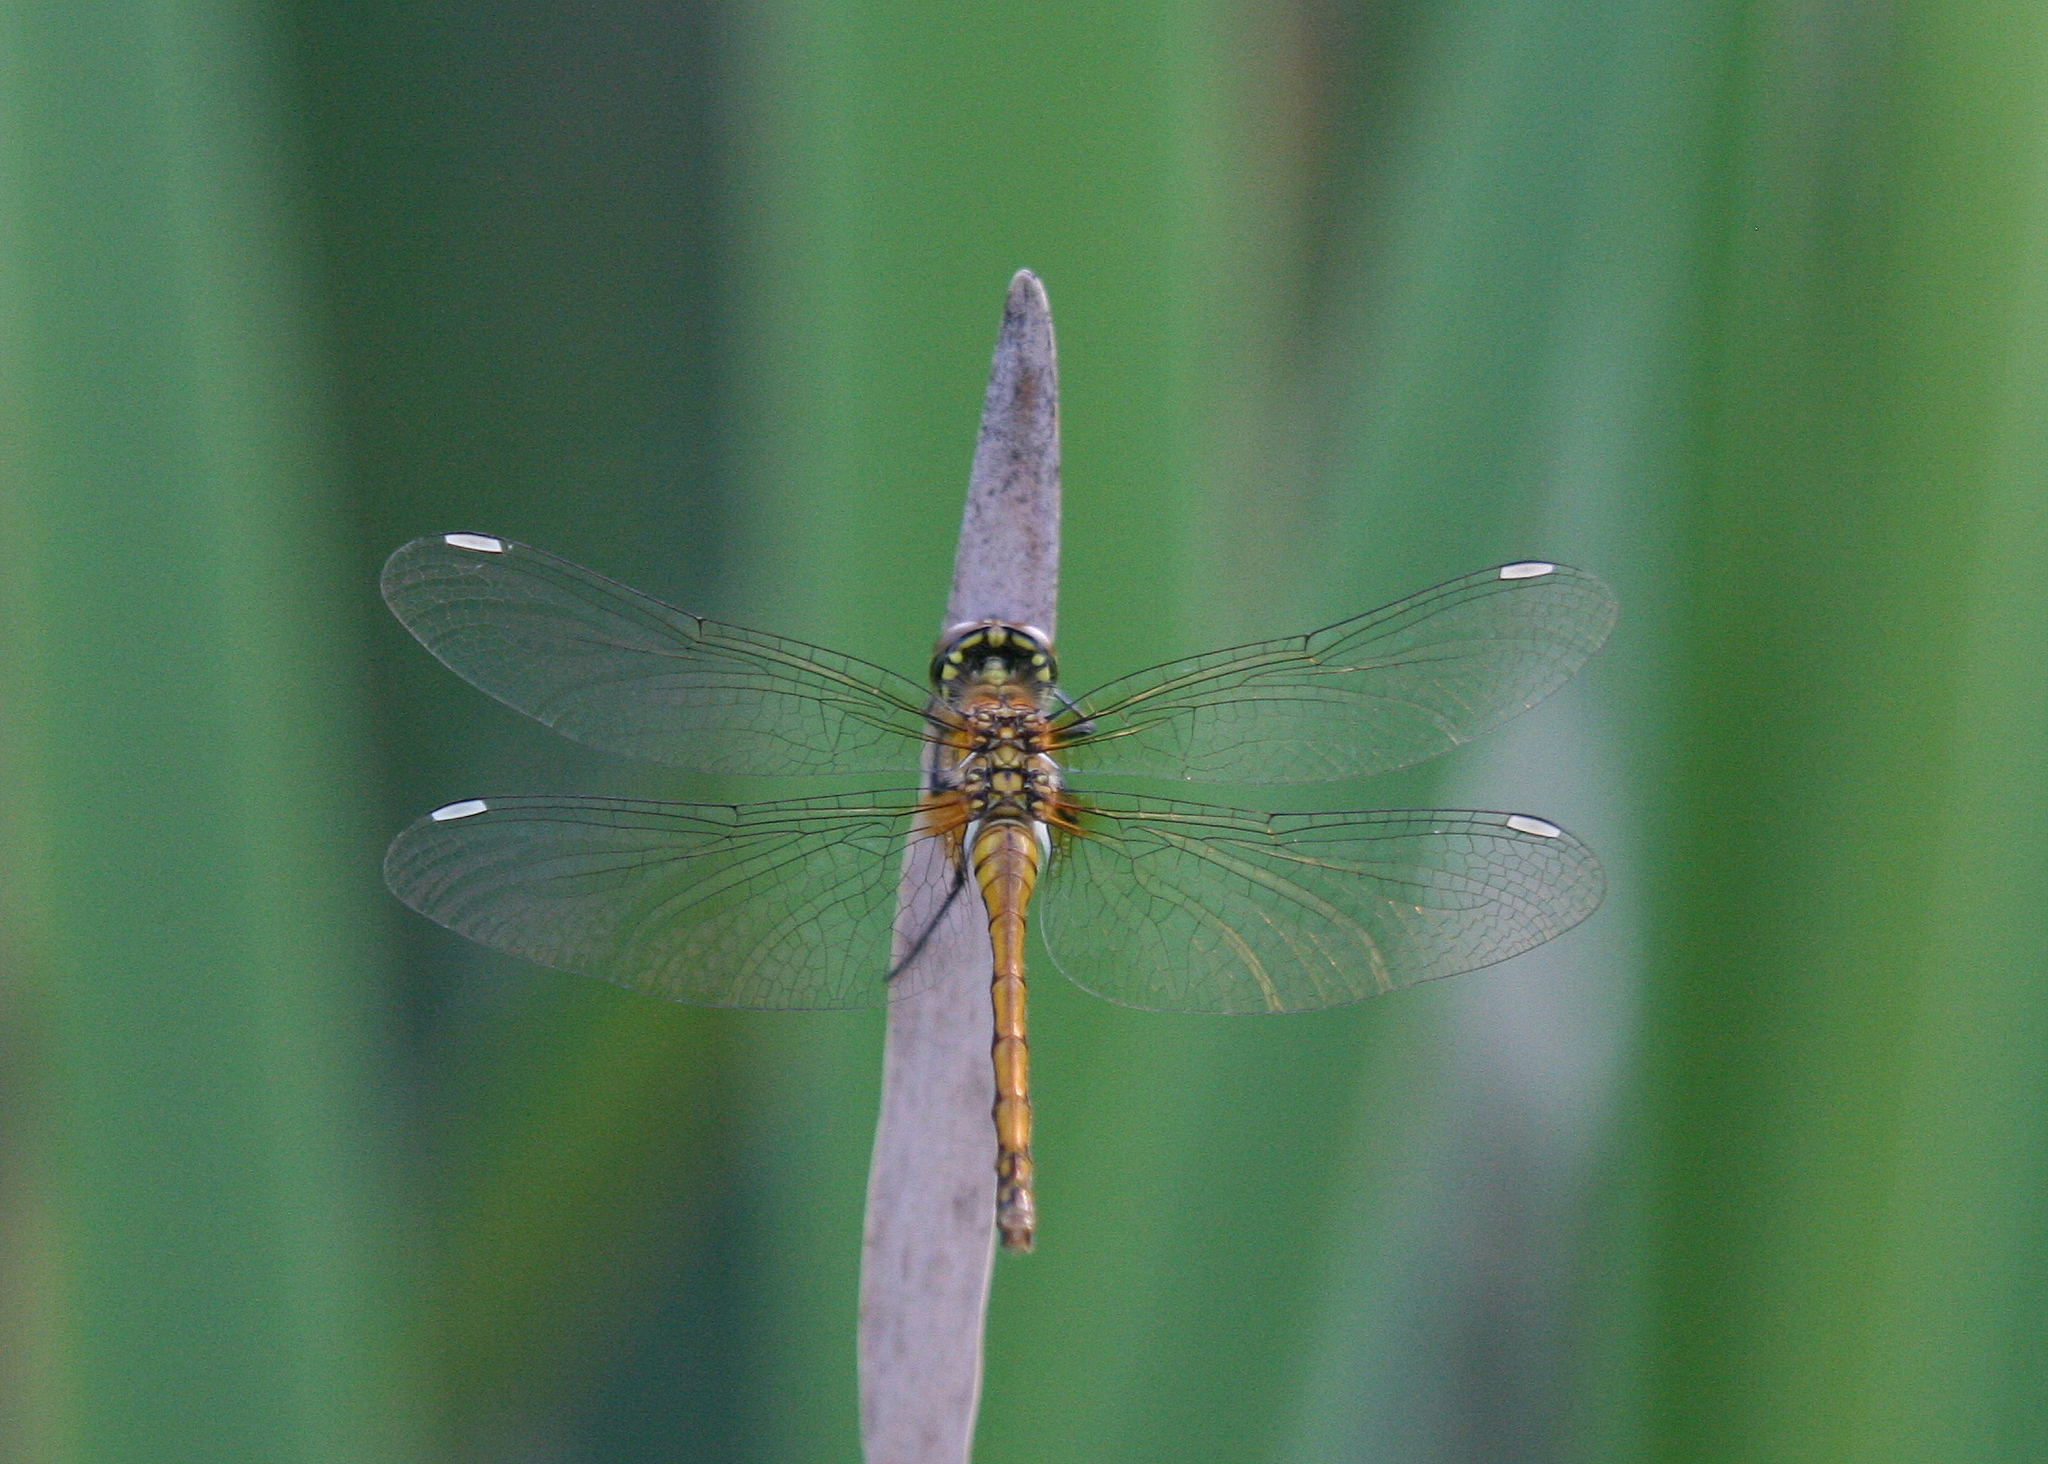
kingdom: Animalia
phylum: Arthropoda
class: Insecta
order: Odonata
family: Libellulidae
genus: Sympetrum
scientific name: Sympetrum danae
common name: Black darter
